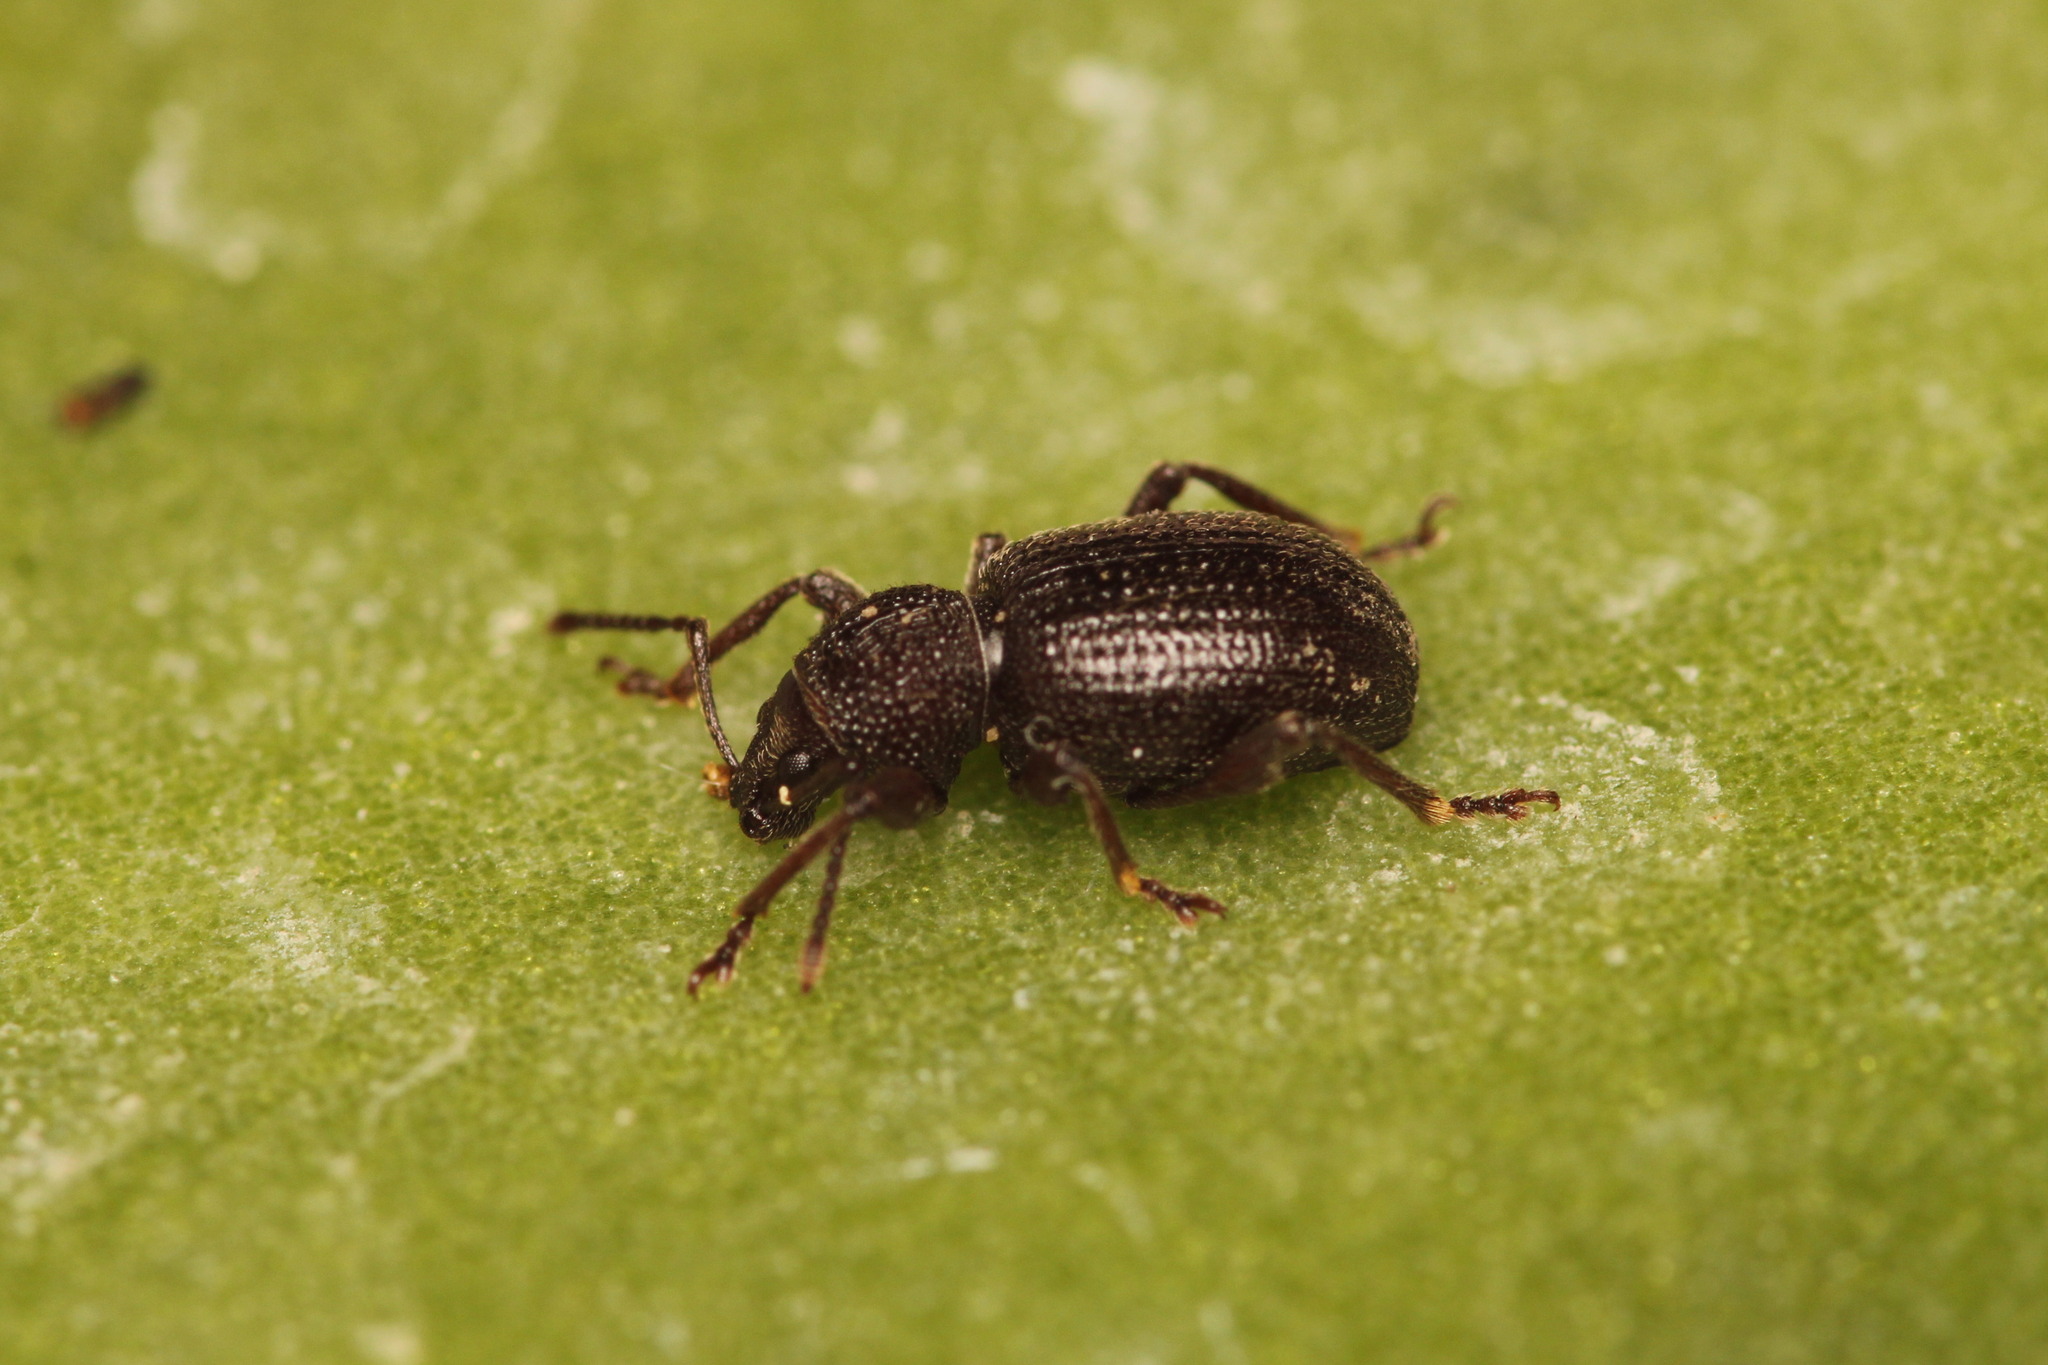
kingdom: Animalia
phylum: Arthropoda
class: Insecta
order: Coleoptera
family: Curculionidae
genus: Otiorhynchus
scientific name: Otiorhynchus ovatus
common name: Strawberry root weevil
